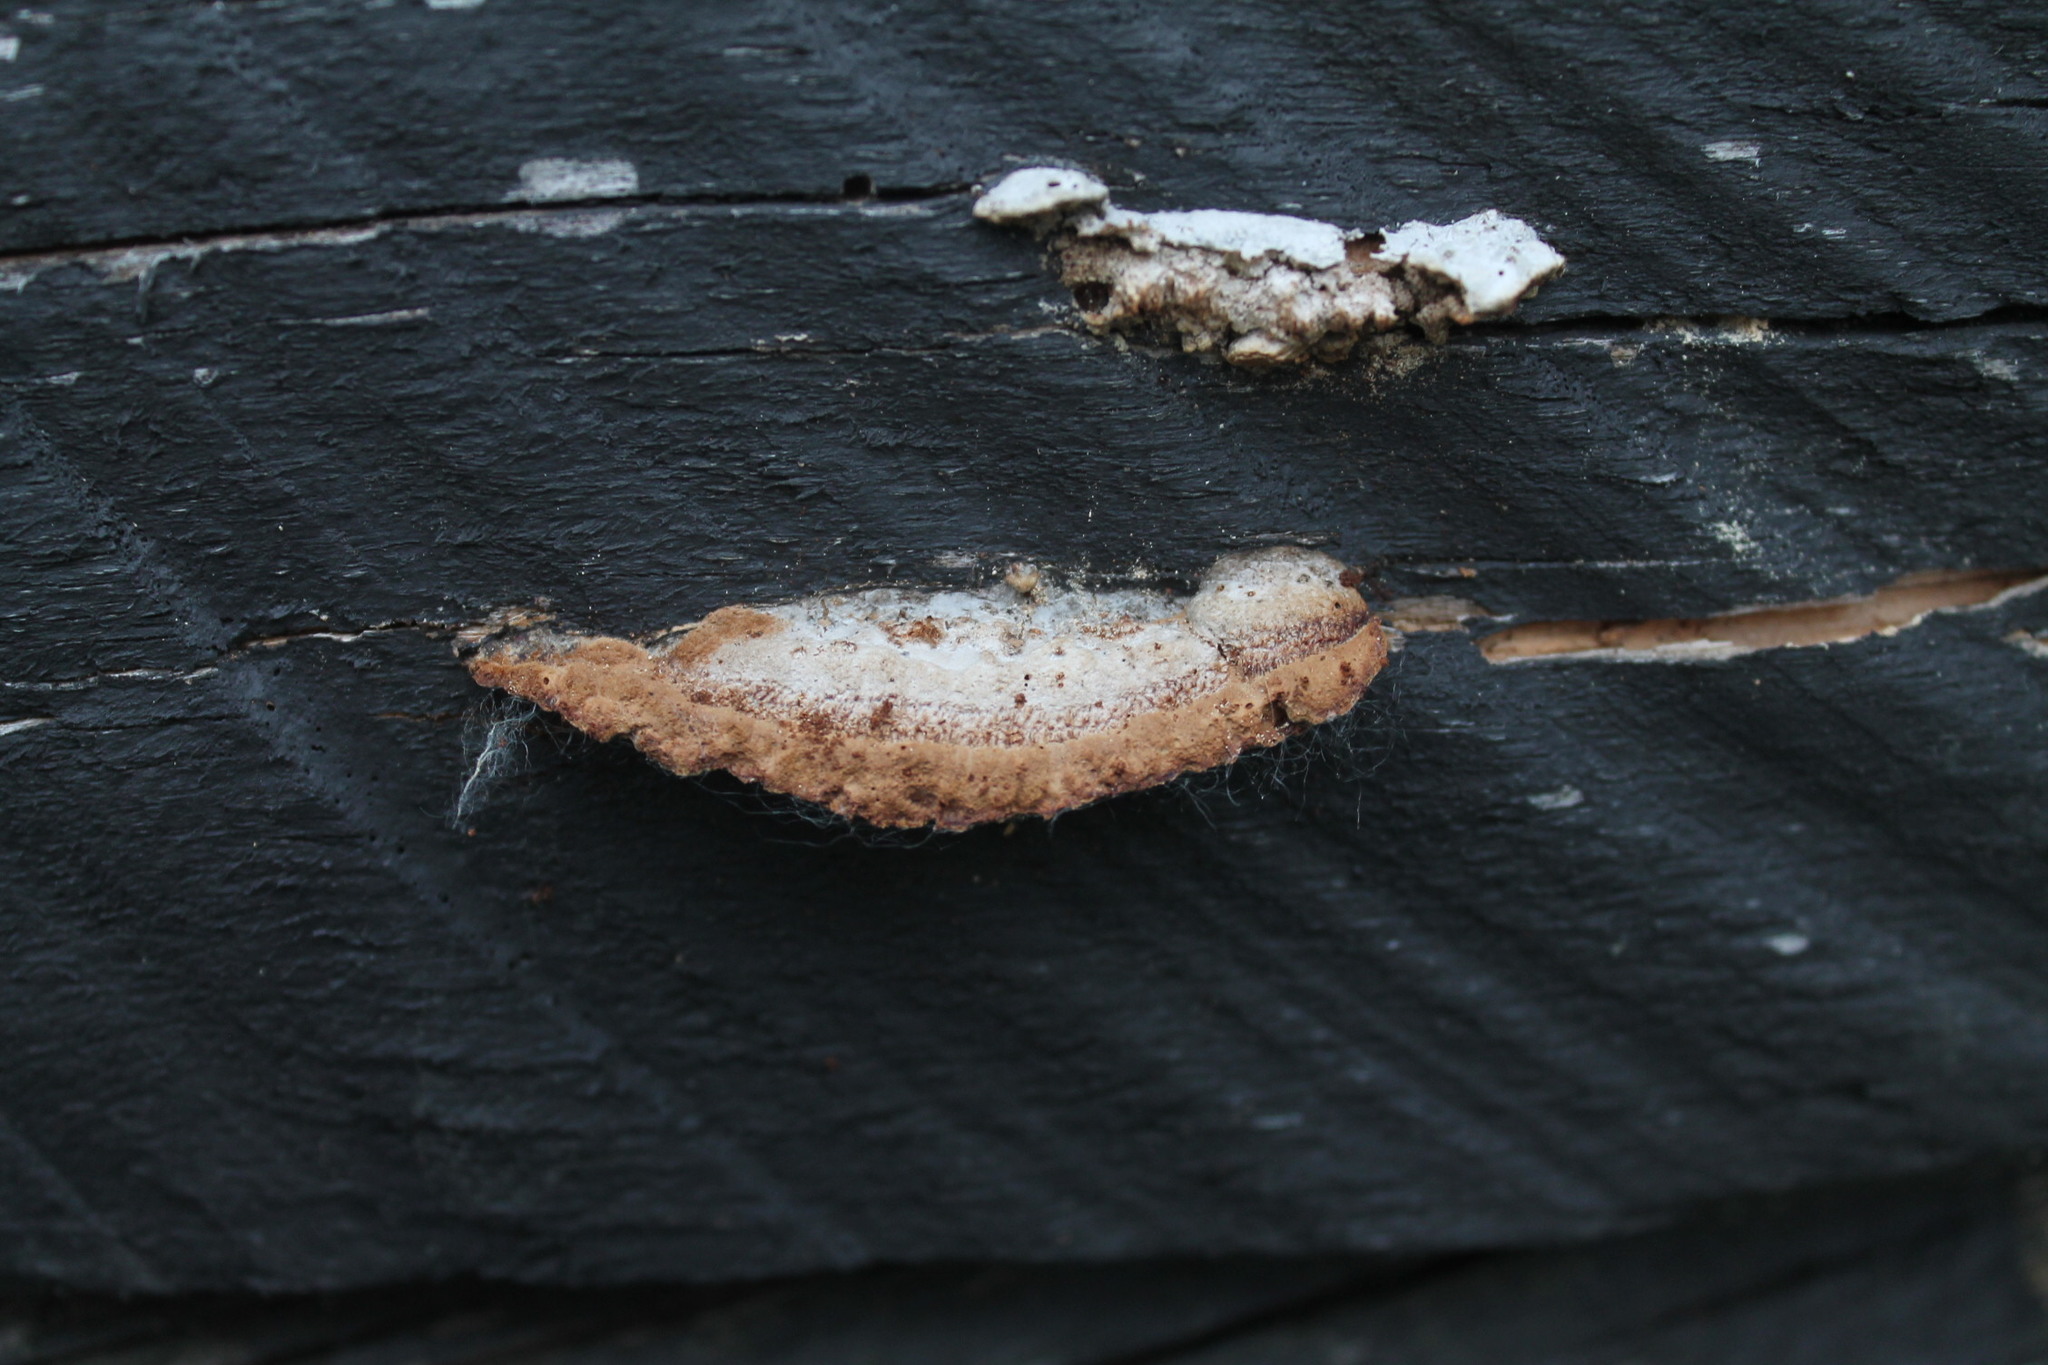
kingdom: Fungi
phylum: Basidiomycota
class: Agaricomycetes
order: Gloeophyllales
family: Gloeophyllaceae
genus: Gloeophyllum
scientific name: Gloeophyllum sepiarium
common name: Conifer mazegill
